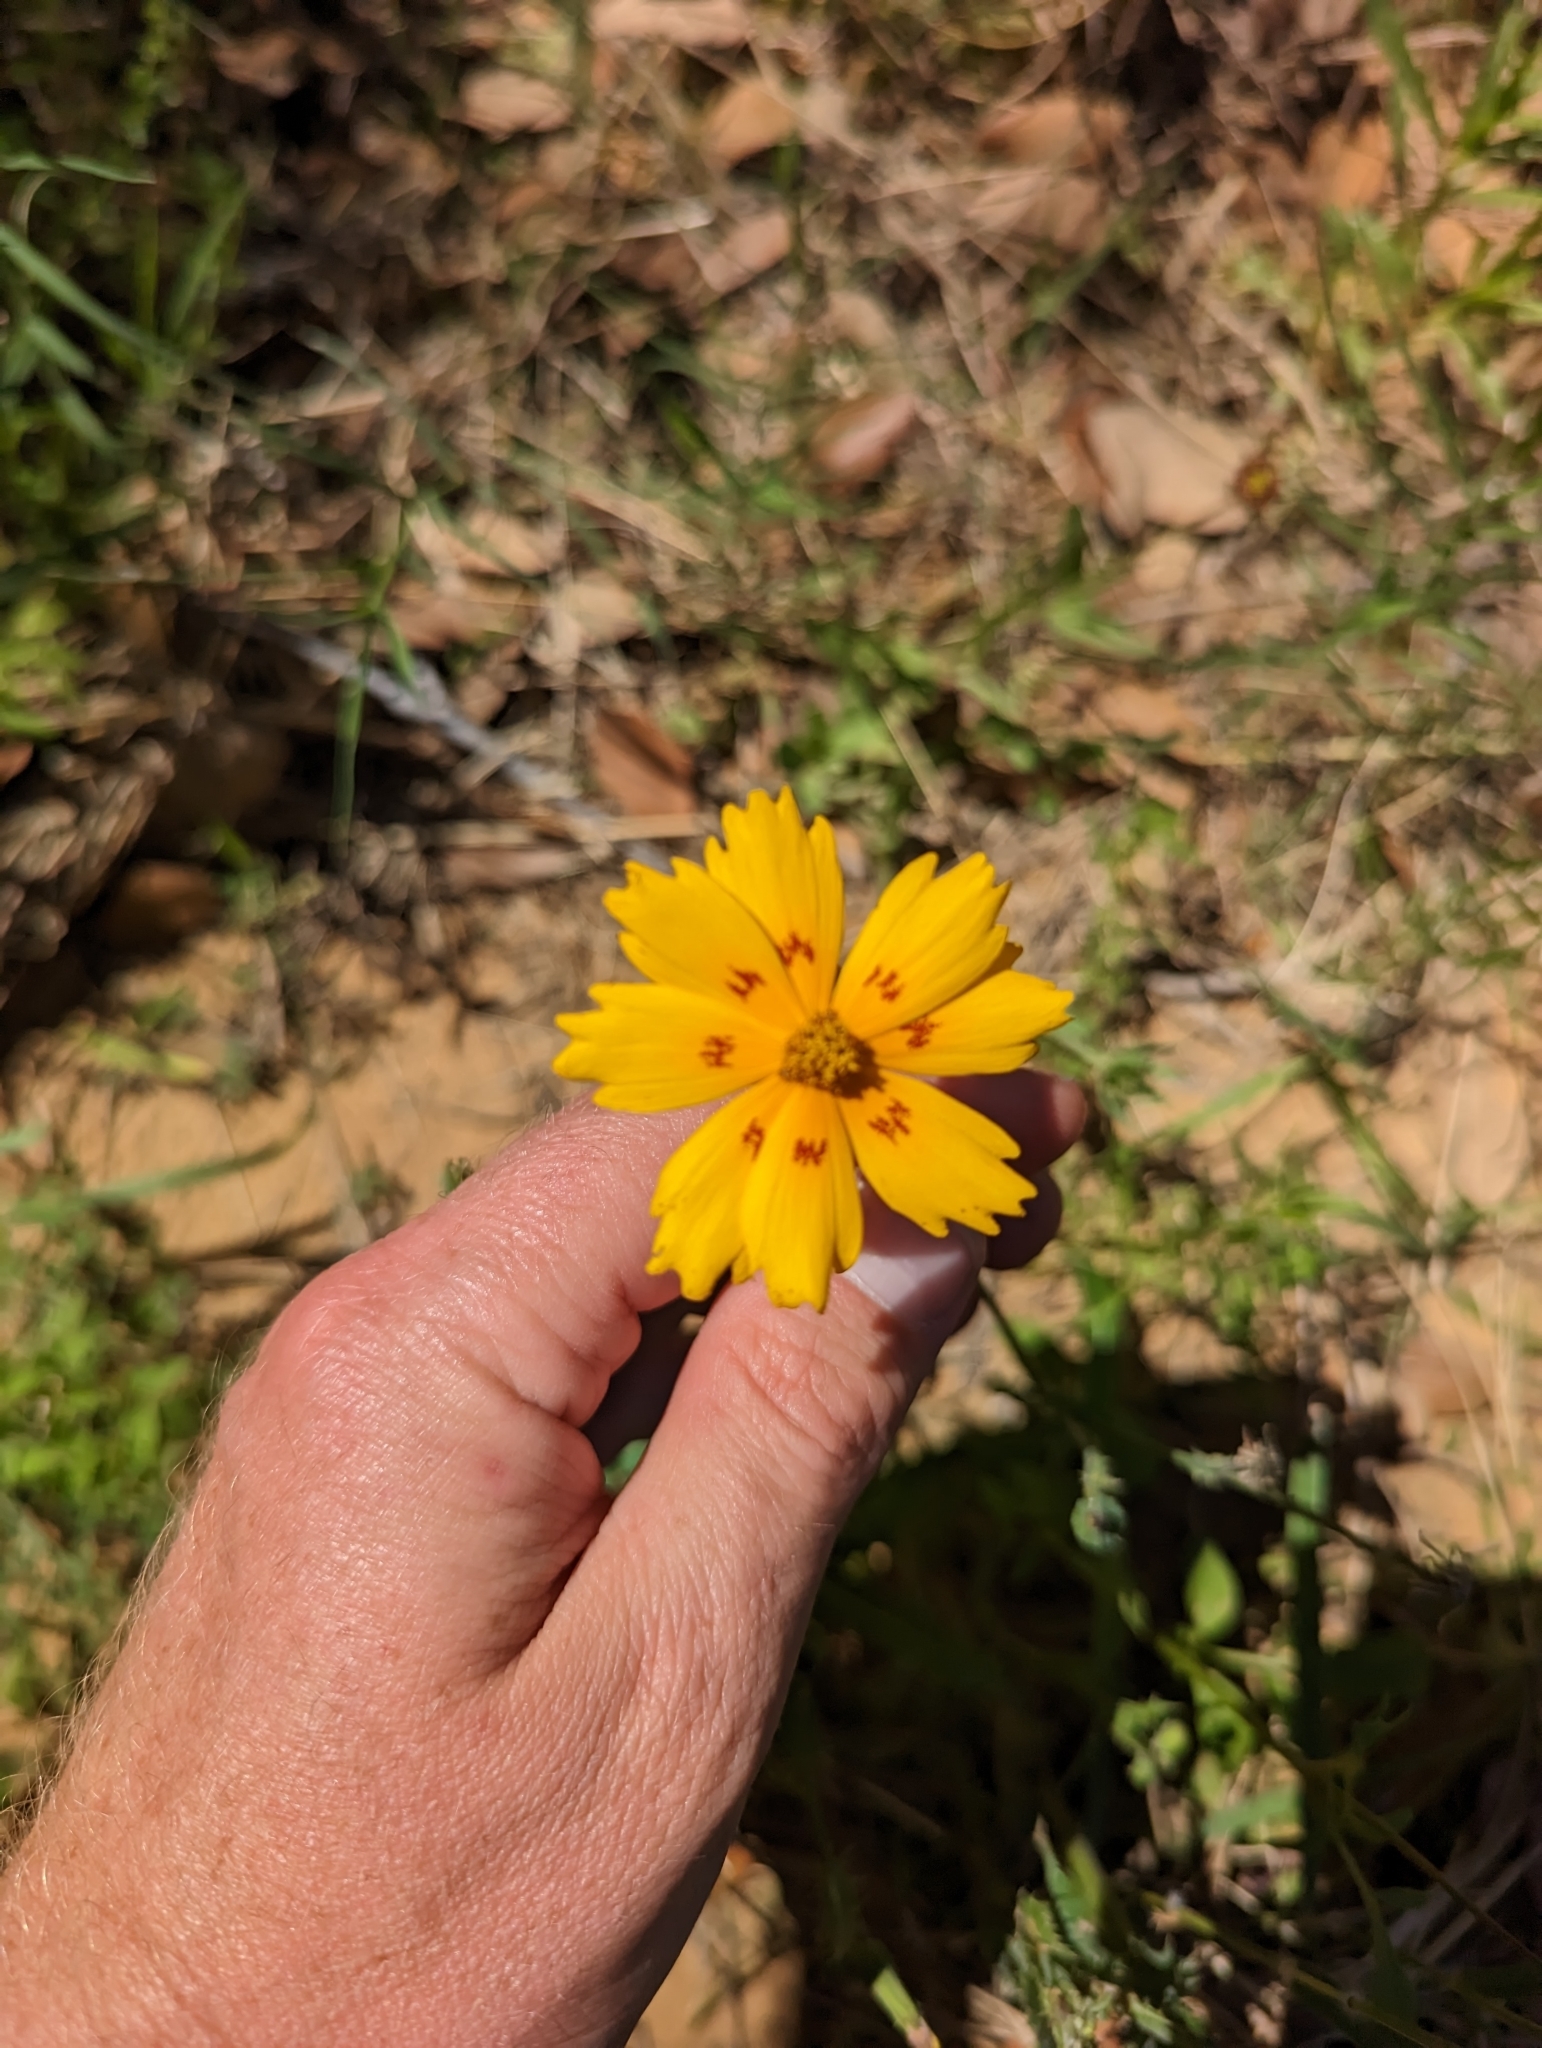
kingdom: Plantae
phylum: Tracheophyta
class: Magnoliopsida
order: Asterales
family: Asteraceae
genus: Coreopsis
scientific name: Coreopsis nuecensis
